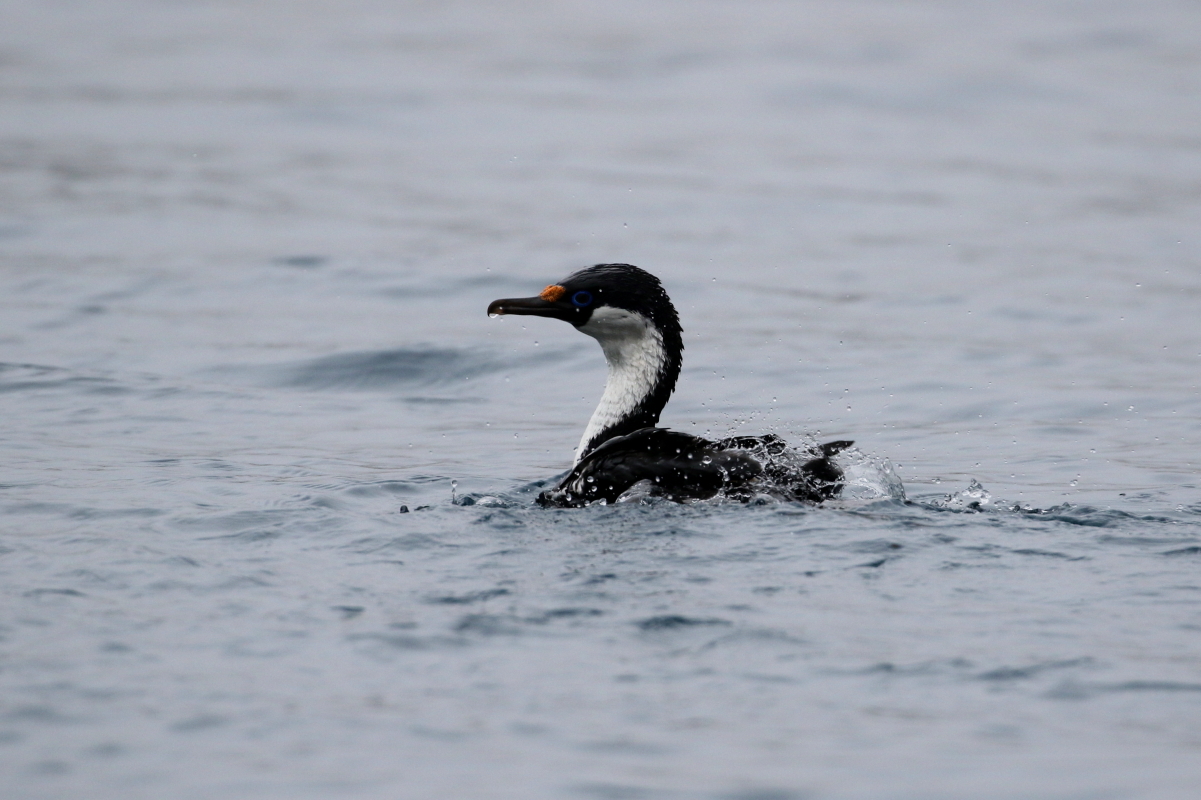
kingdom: Animalia
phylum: Chordata
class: Aves
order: Suliformes
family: Phalacrocoracidae
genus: Leucocarbo
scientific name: Leucocarbo atriceps
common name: Imperial shag
